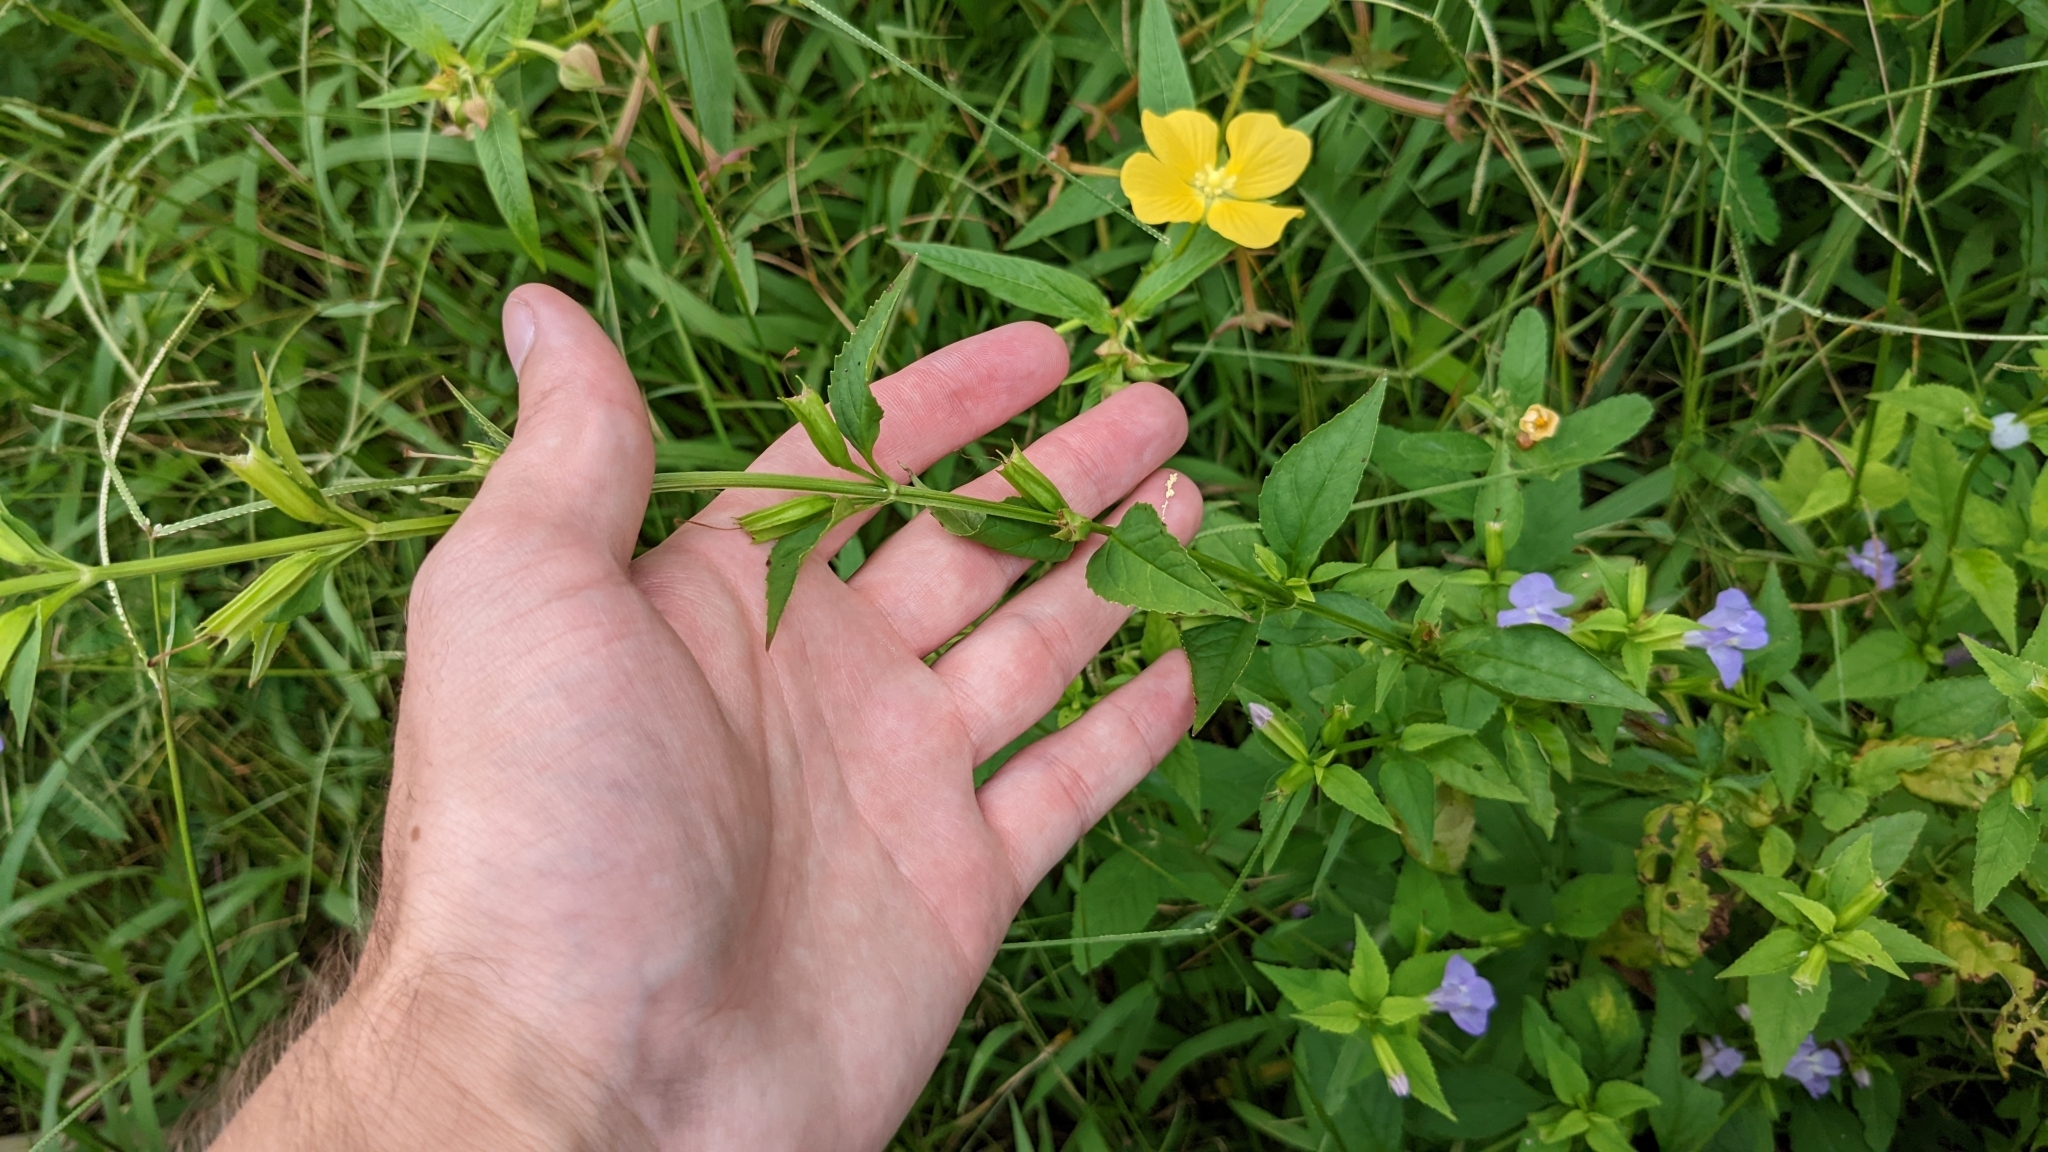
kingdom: Plantae
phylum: Tracheophyta
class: Magnoliopsida
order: Lamiales
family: Phrymaceae
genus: Mimulus
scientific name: Mimulus alatus
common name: Sharp-wing monkey-flower
